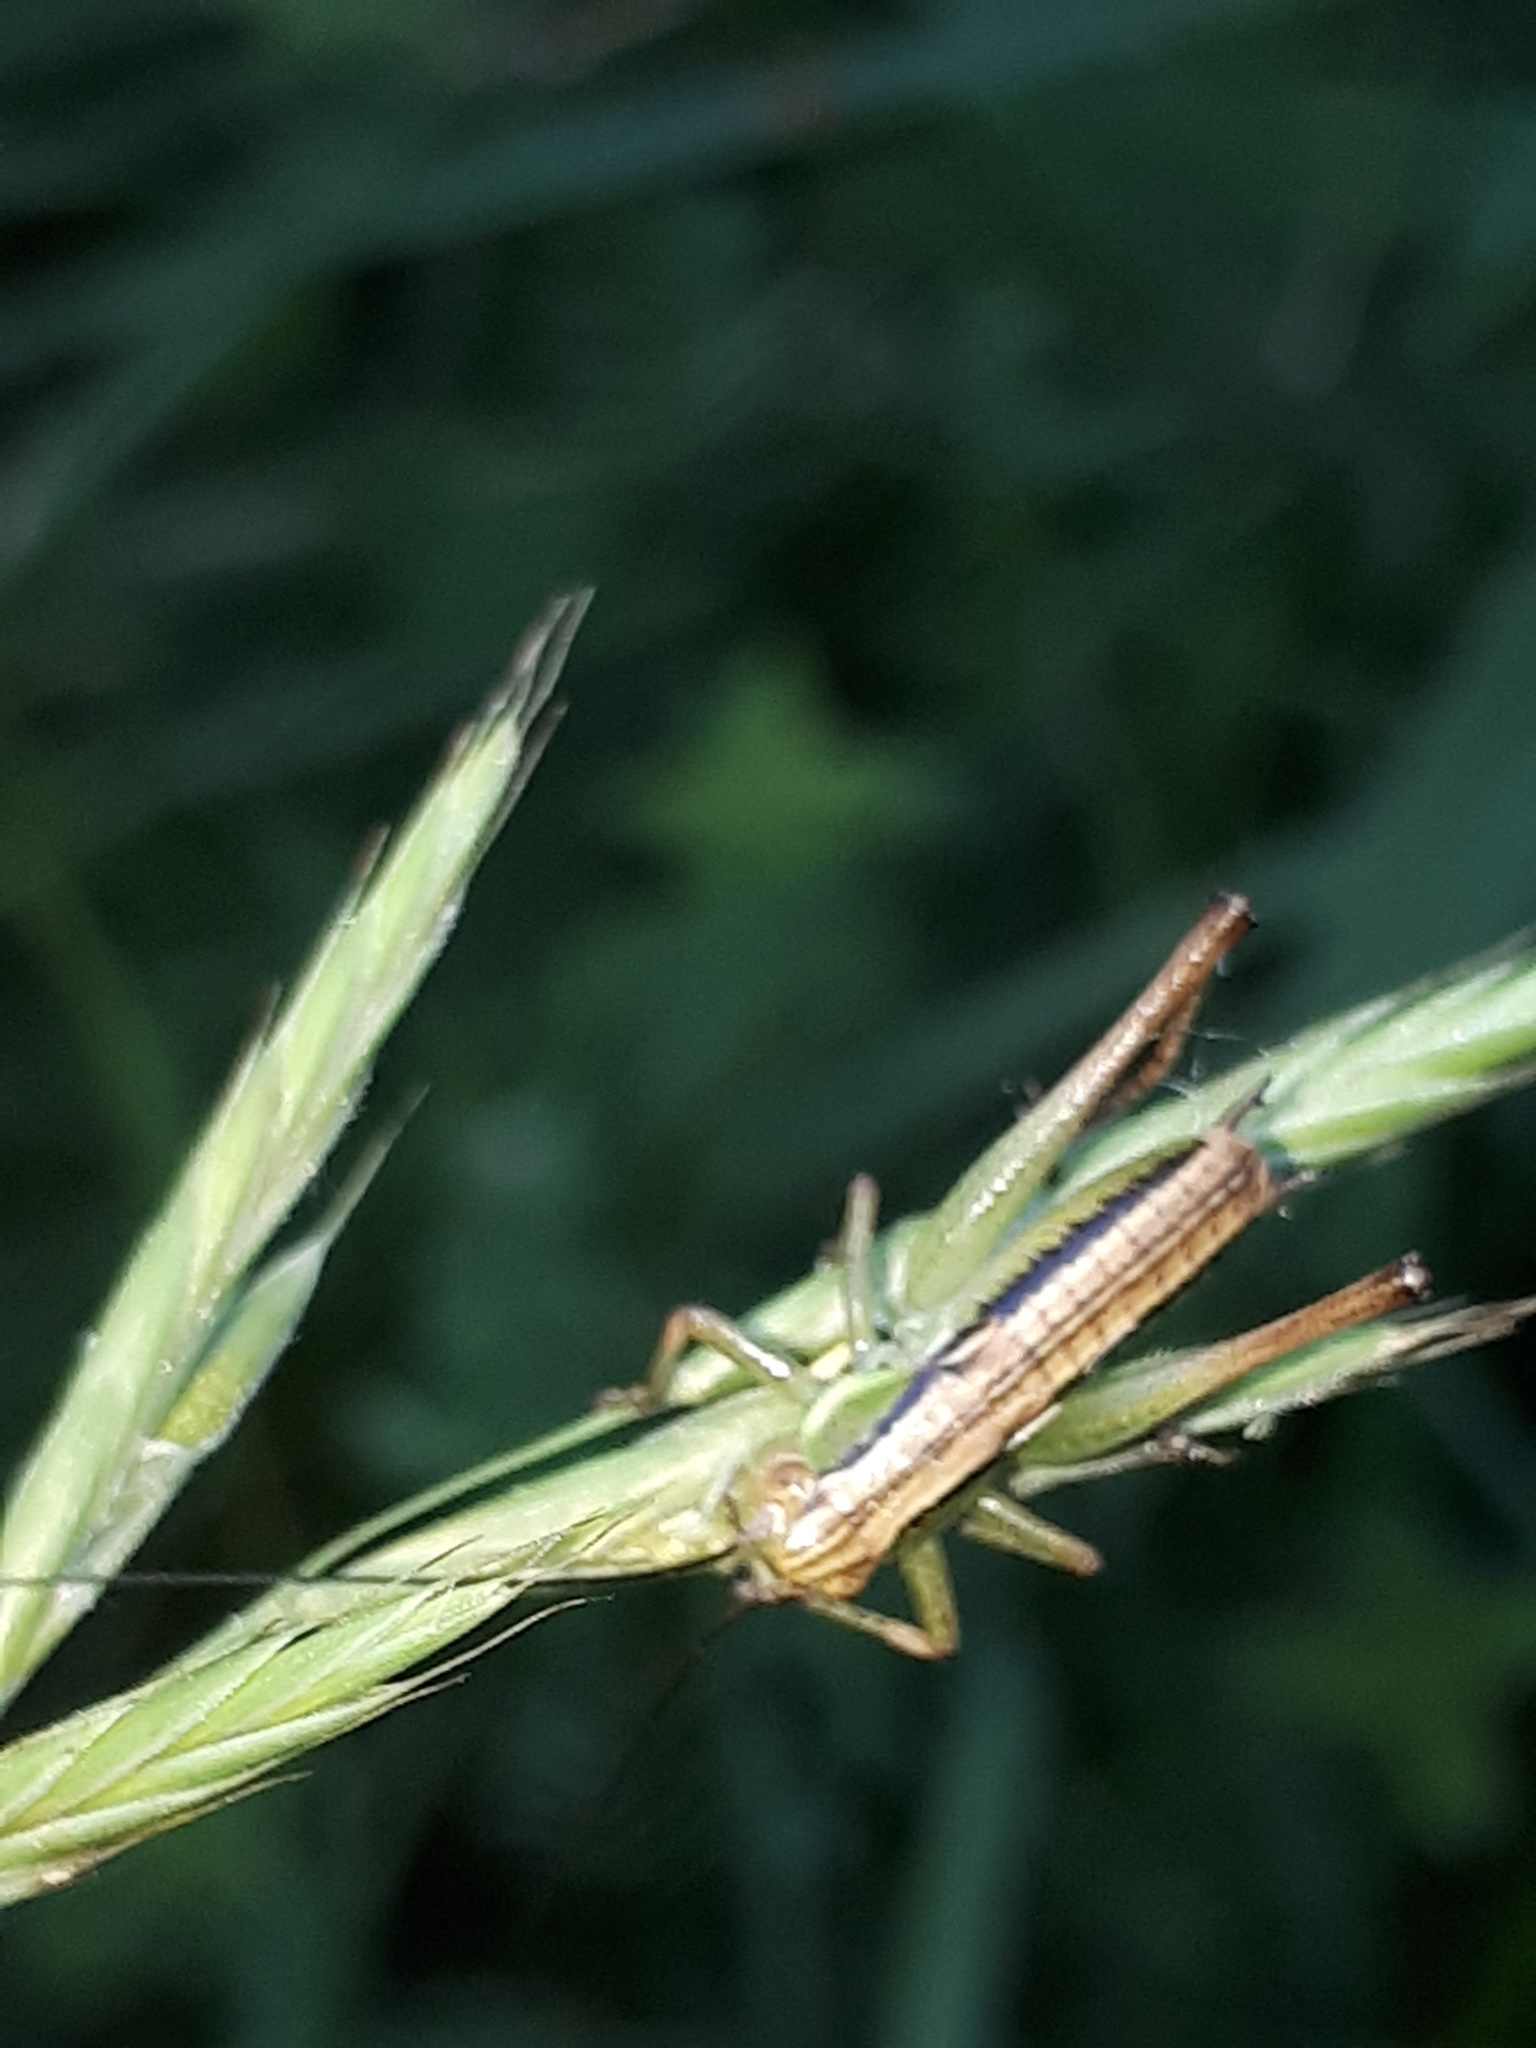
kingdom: Animalia
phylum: Arthropoda
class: Insecta
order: Orthoptera
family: Tettigoniidae
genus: Roeseliana
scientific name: Roeseliana roeselii
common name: Roesel's bush cricket
